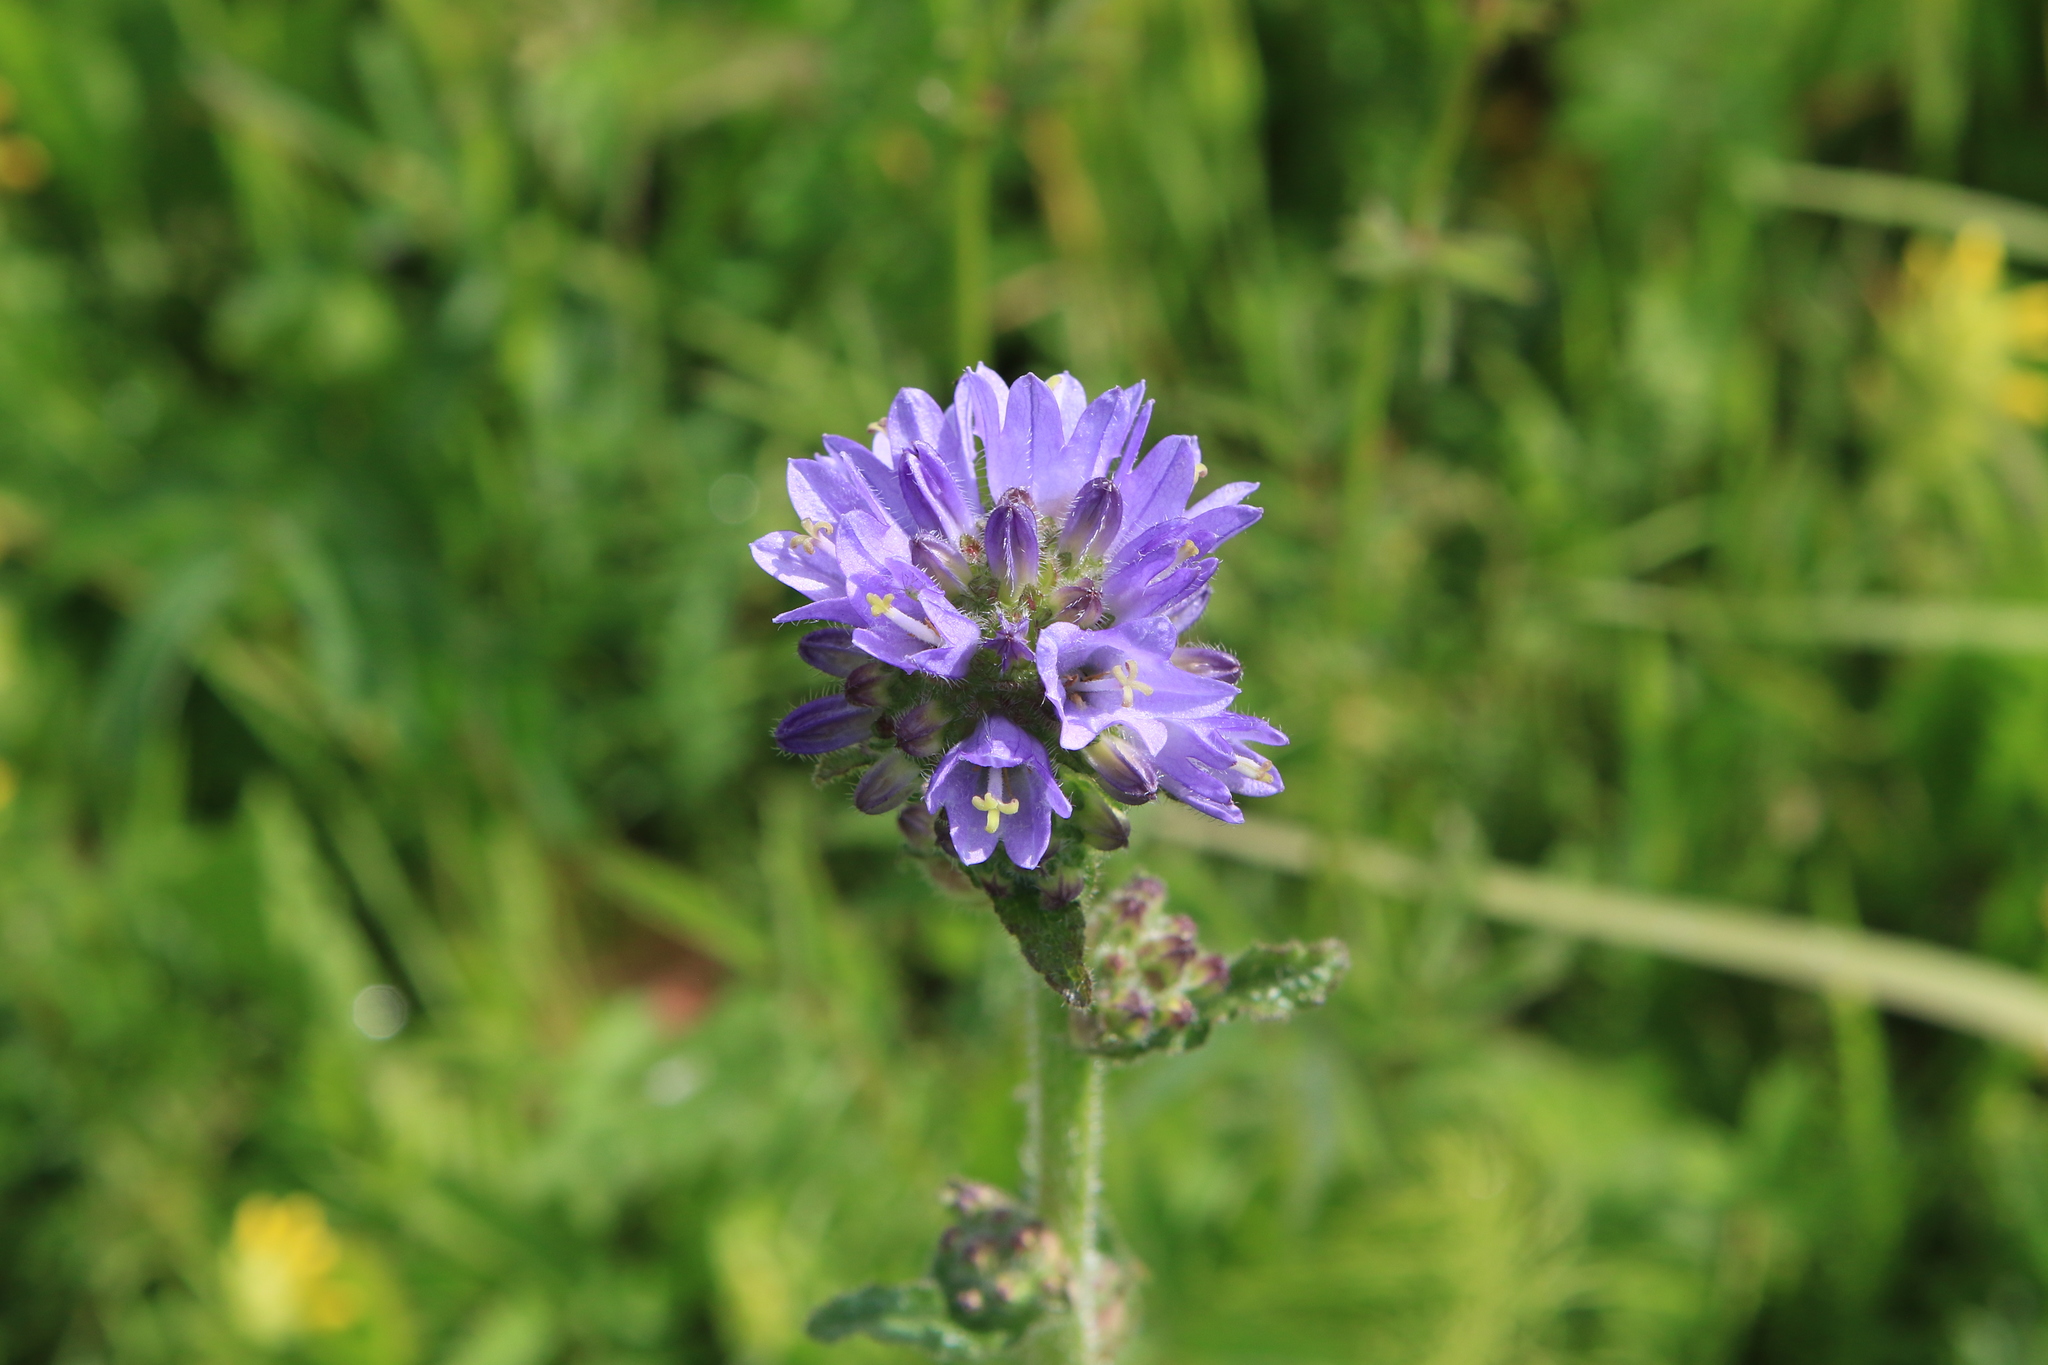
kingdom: Plantae
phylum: Tracheophyta
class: Magnoliopsida
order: Asterales
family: Campanulaceae
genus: Campanula
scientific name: Campanula cervicaria
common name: Bristly bellflower
